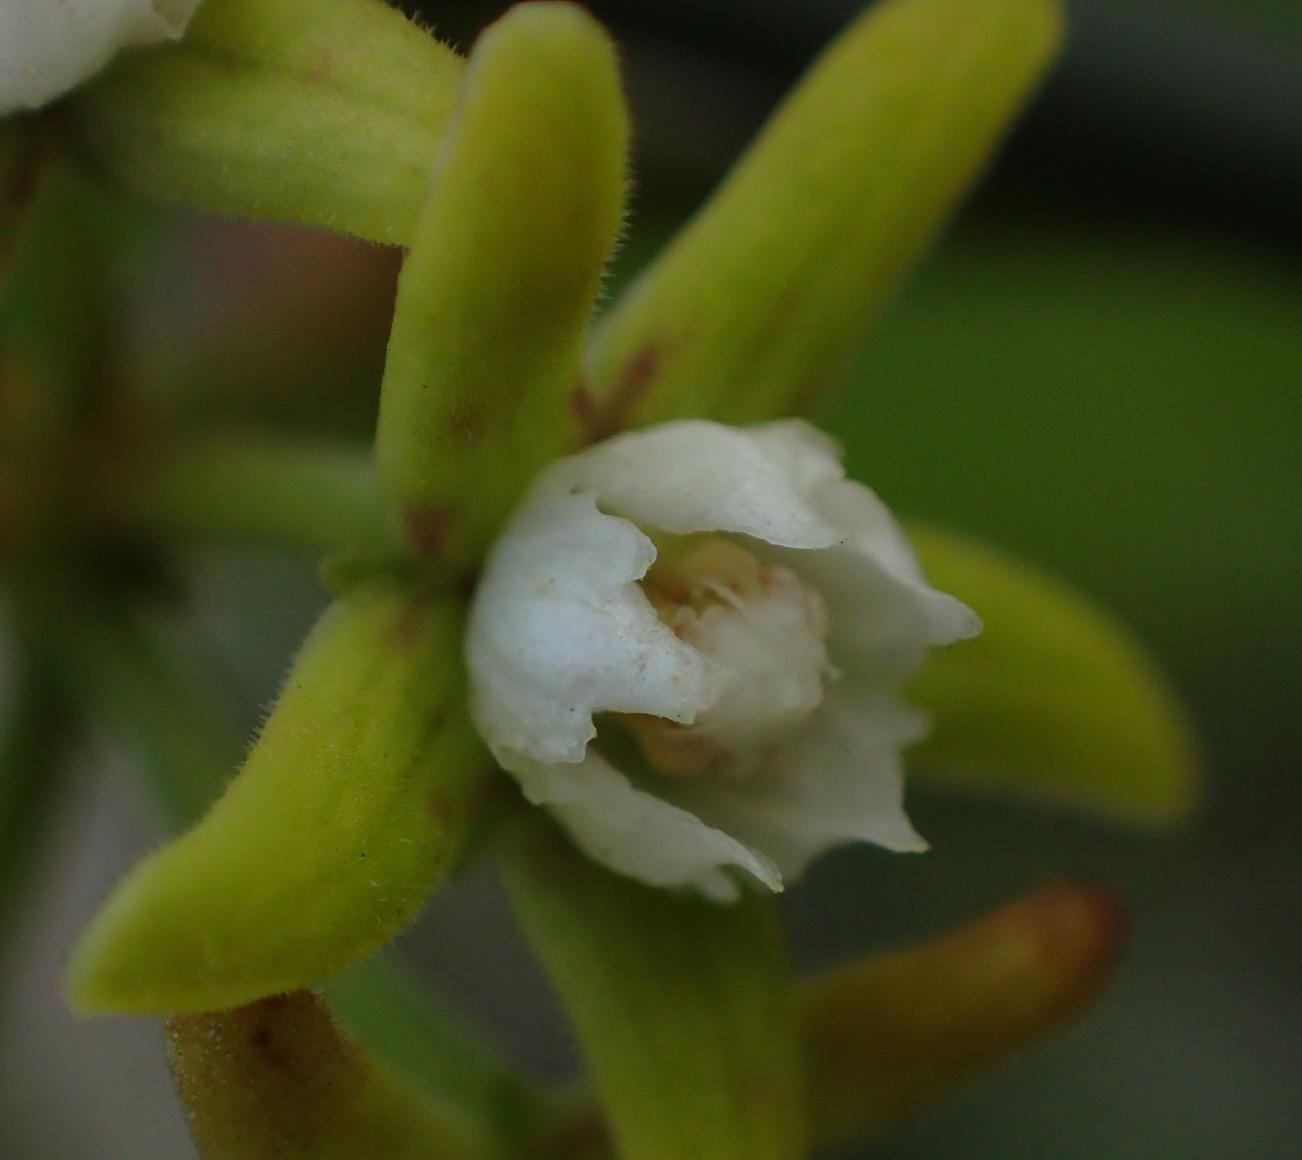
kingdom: Plantae
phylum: Tracheophyta
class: Magnoliopsida
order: Gentianales
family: Apocynaceae
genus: Cynanchum
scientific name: Cynanchum obtusifolium
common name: Monkey-rope
